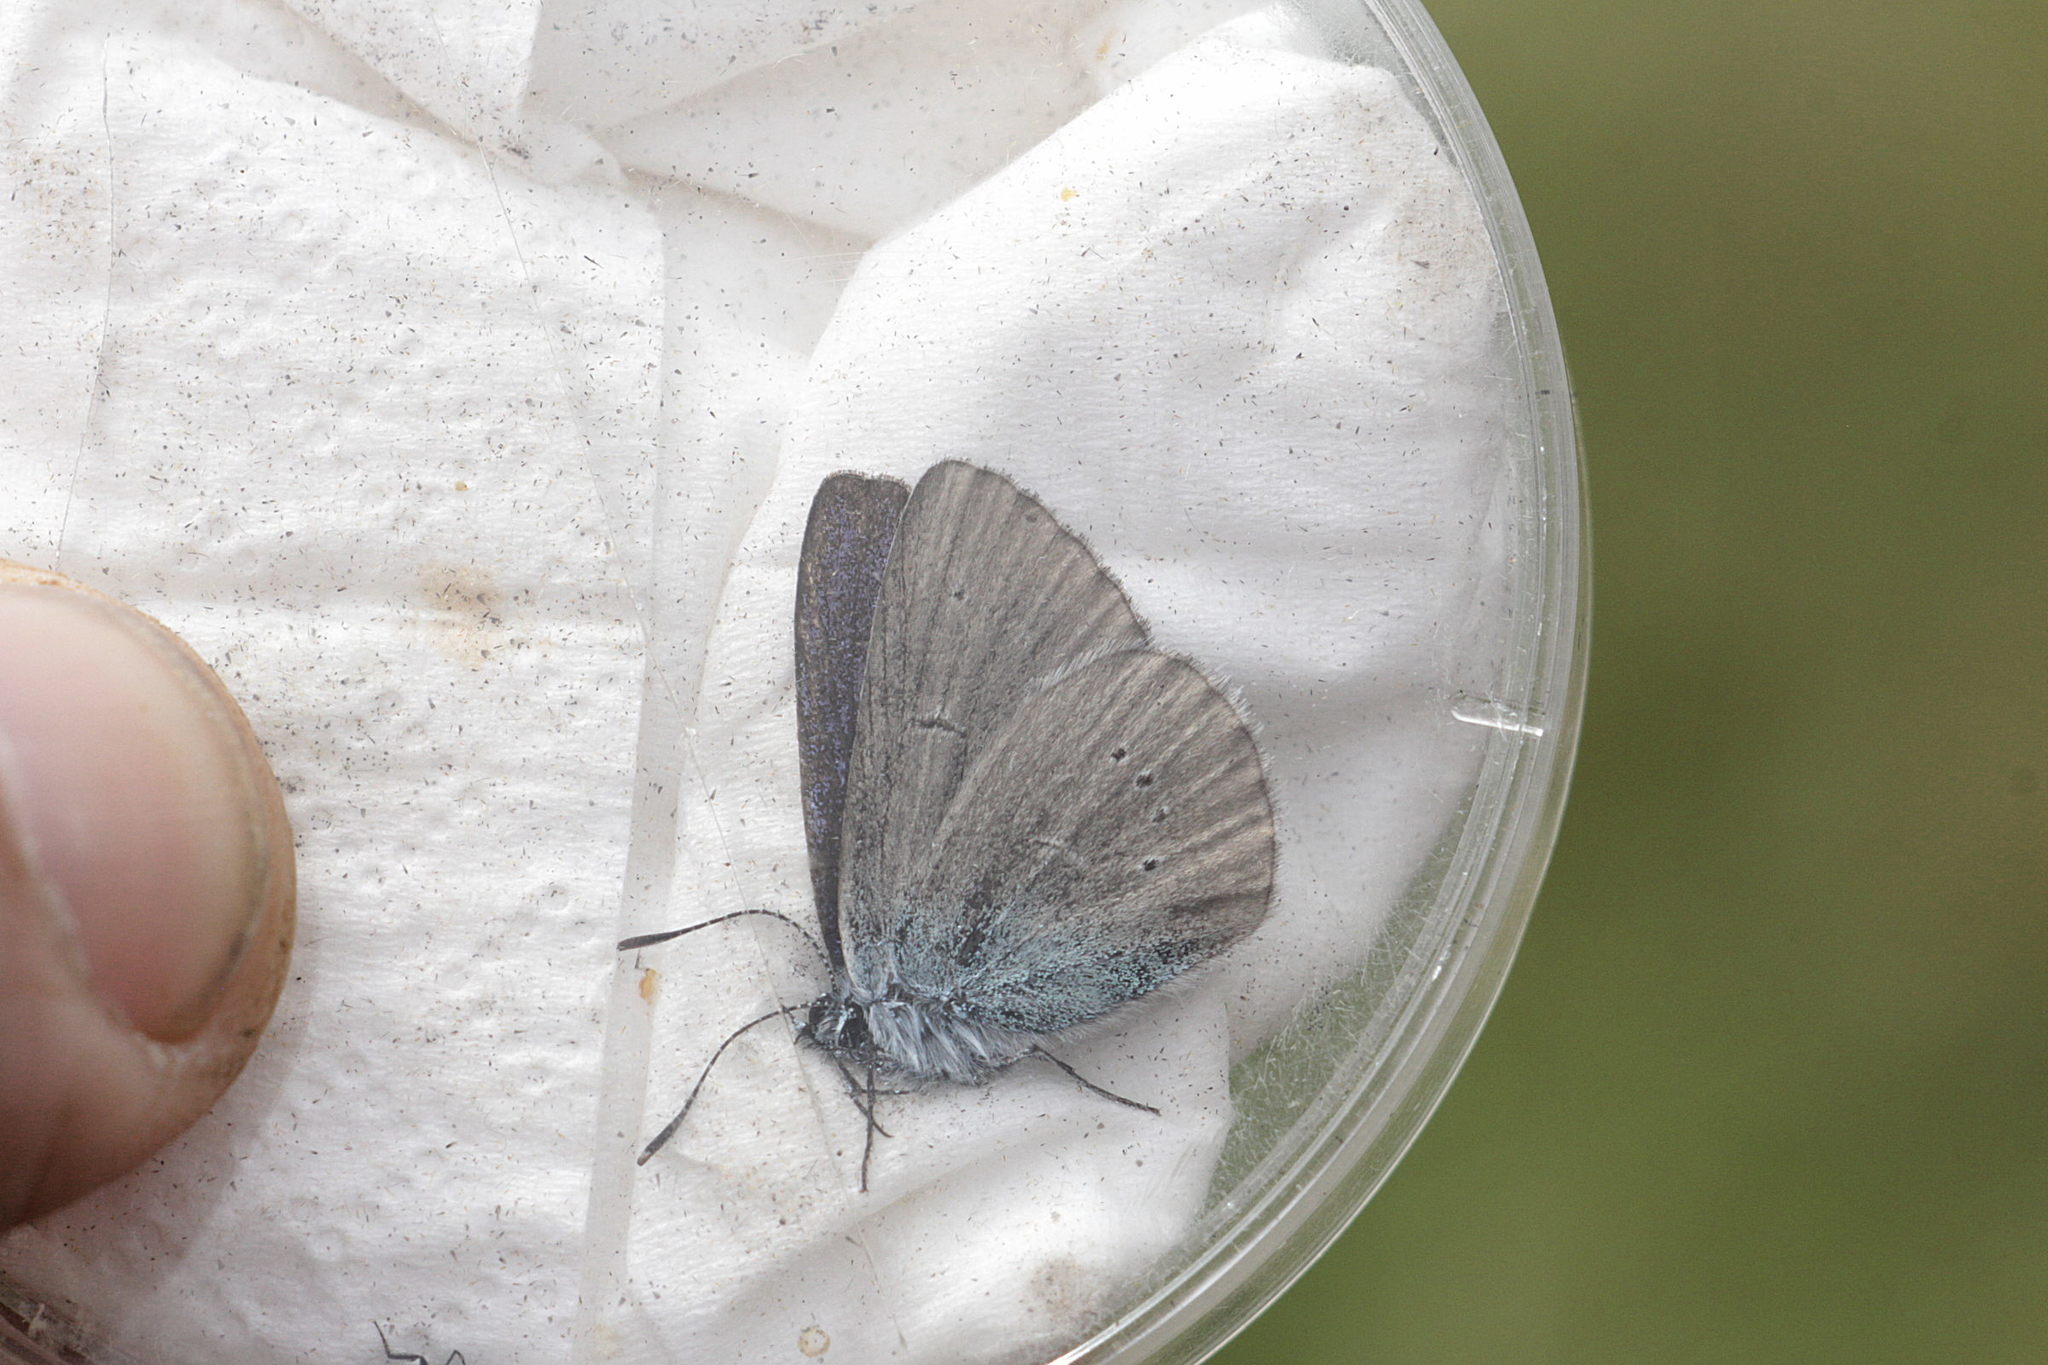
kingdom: Animalia
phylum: Arthropoda
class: Insecta
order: Lepidoptera
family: Lycaenidae
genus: Cyaniris
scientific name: Cyaniris semiargus
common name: Mazarine blue
